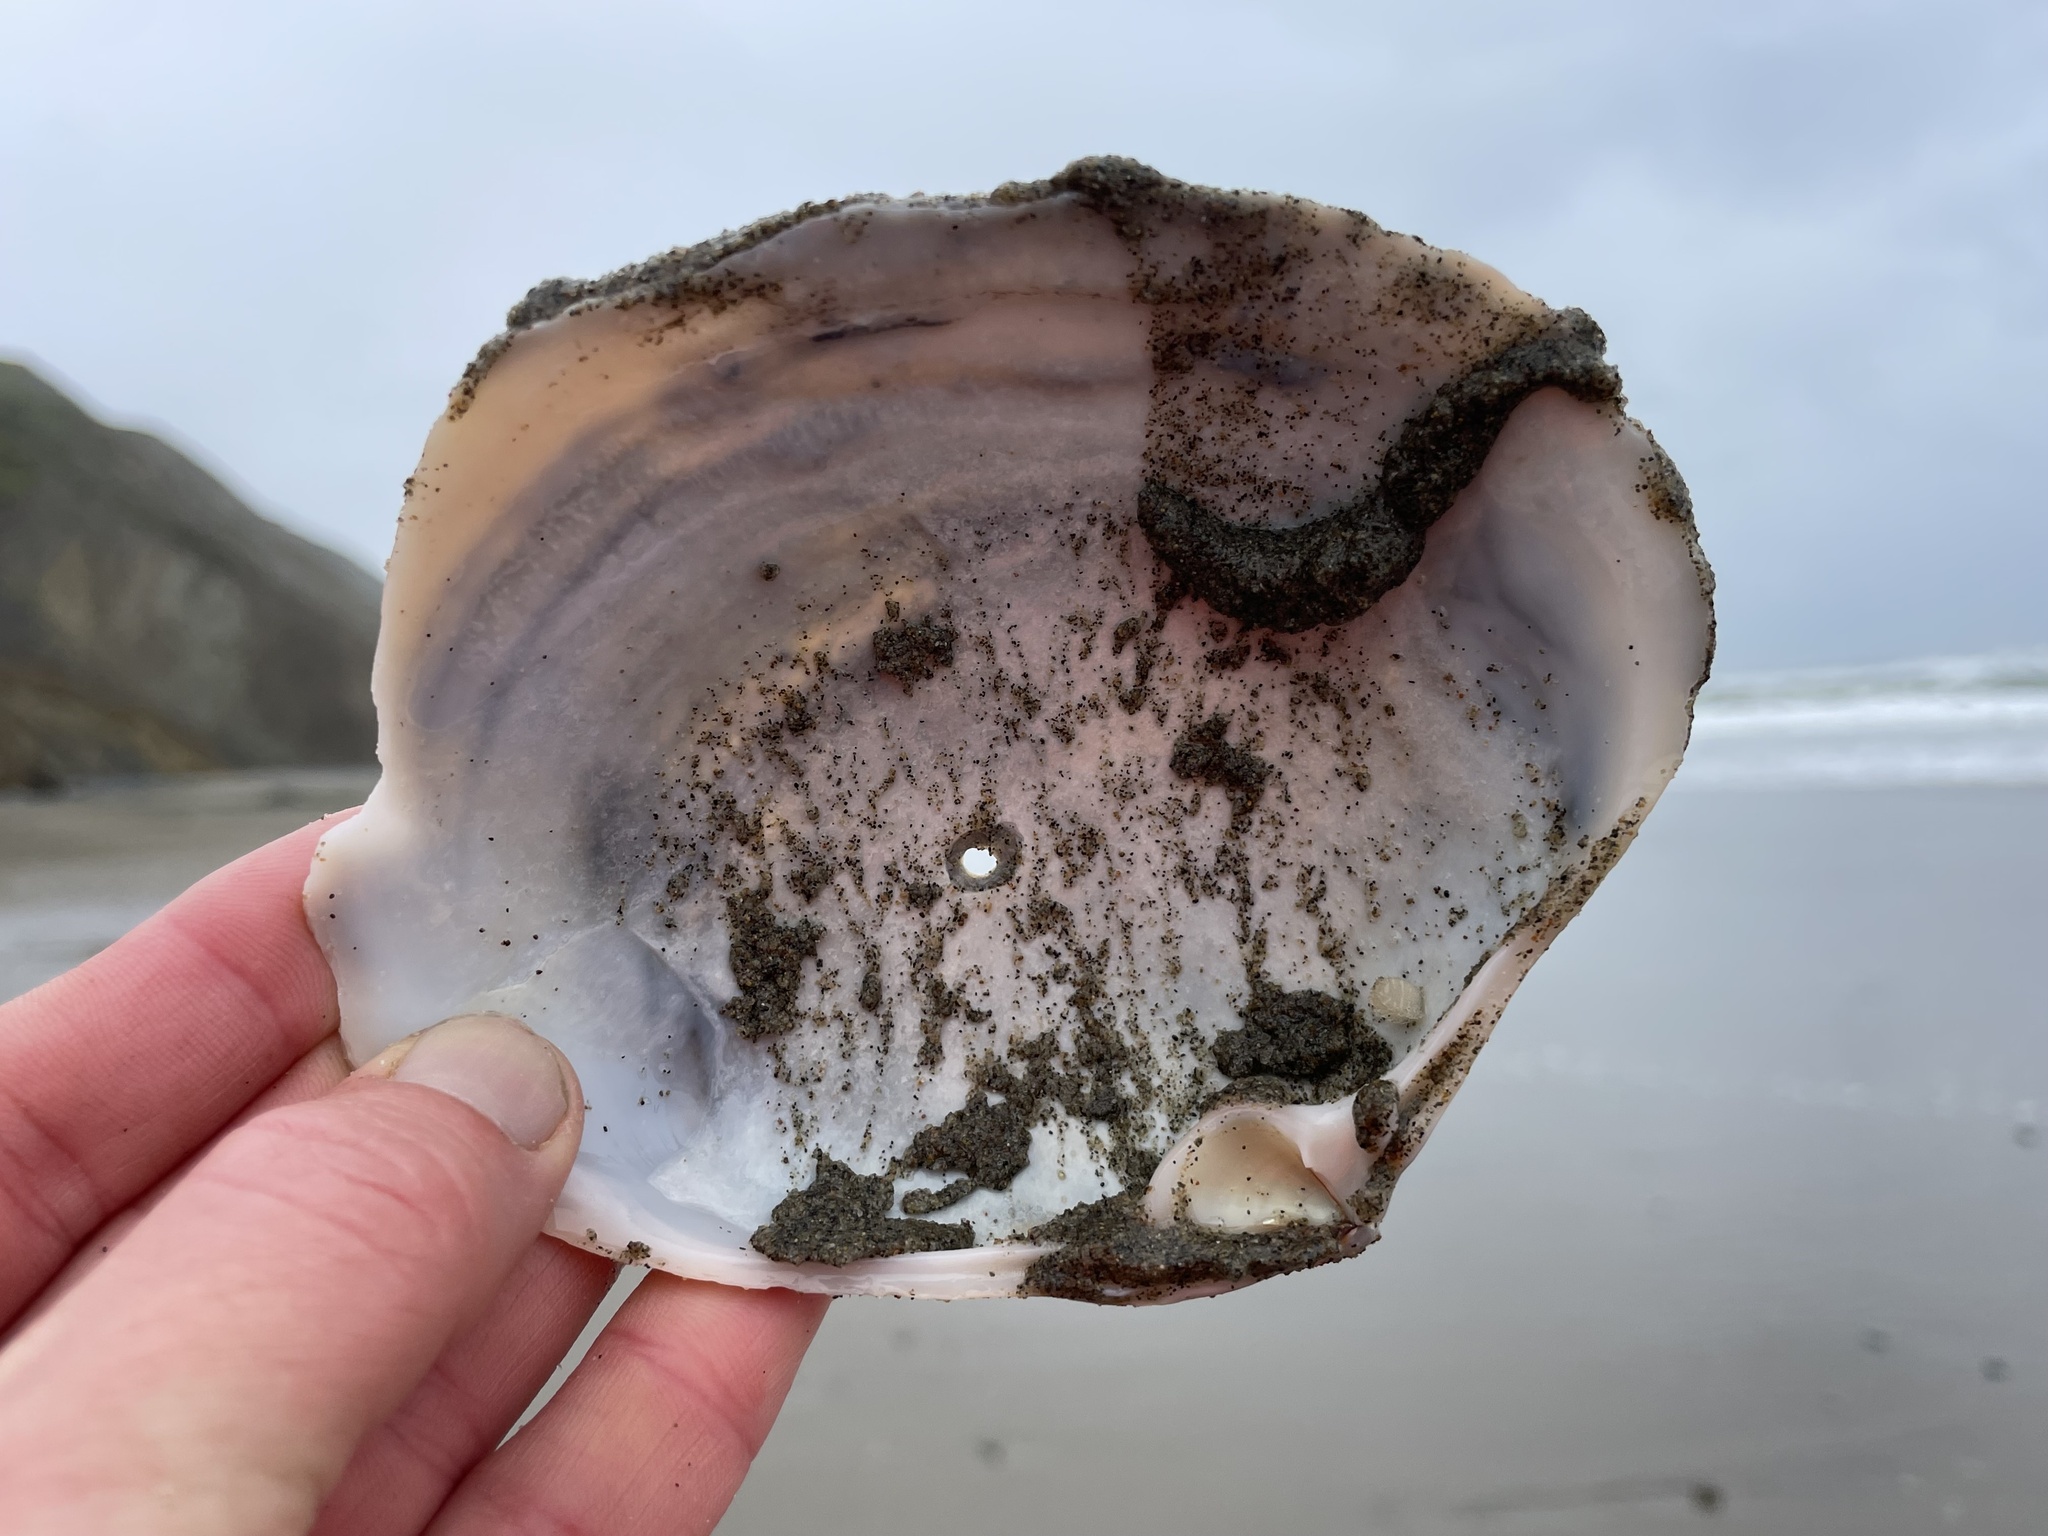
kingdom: Animalia
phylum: Mollusca
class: Bivalvia
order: Venerida
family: Mactridae
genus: Mactromeris
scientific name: Mactromeris catilliformis
